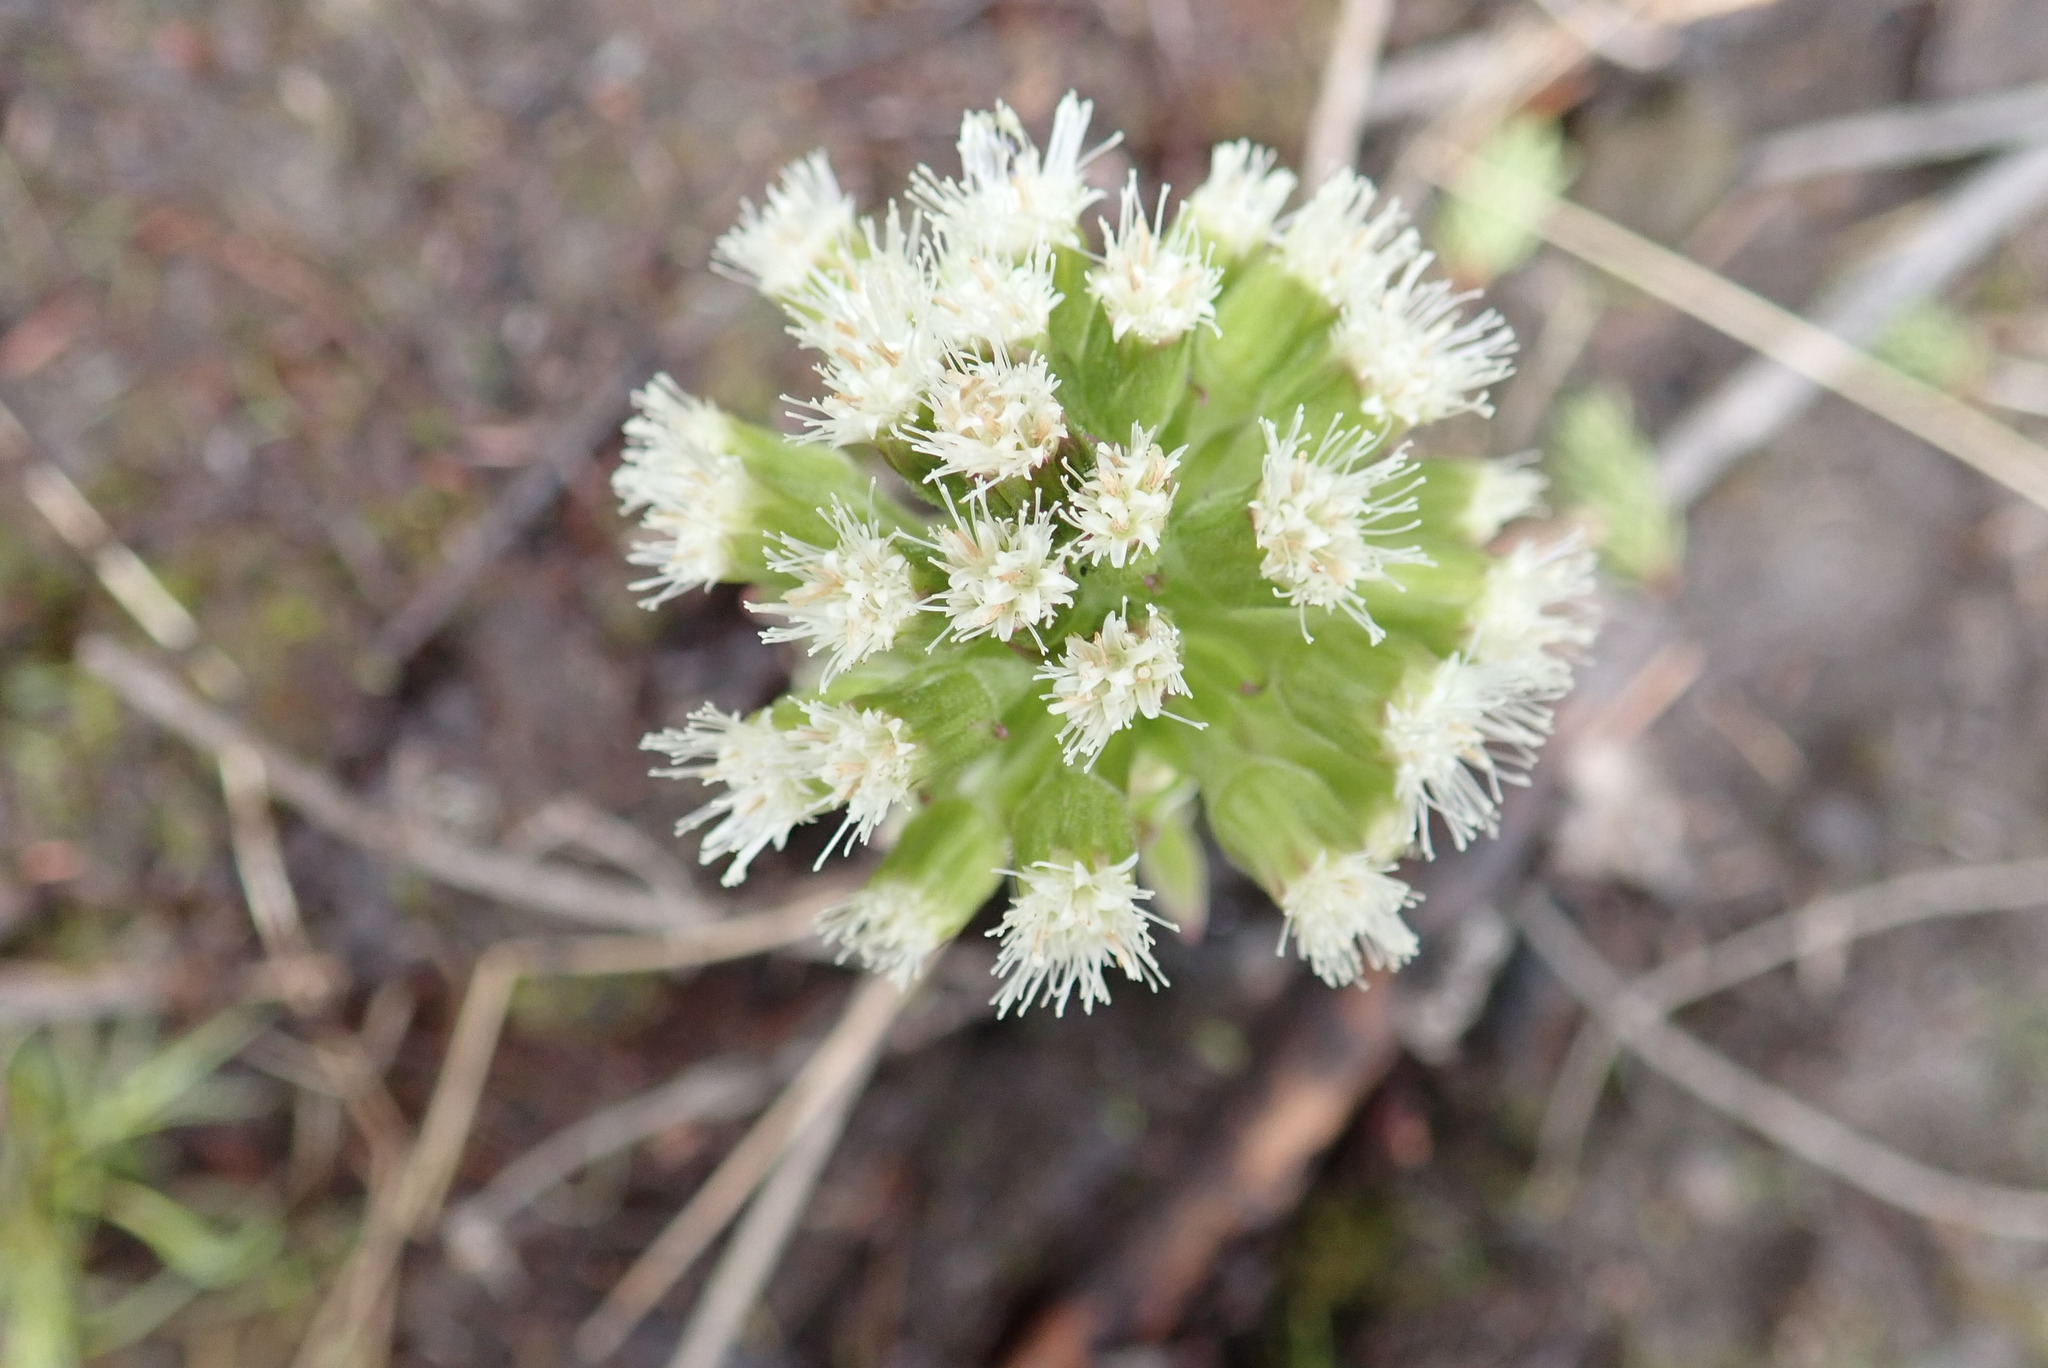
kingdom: Plantae
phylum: Tracheophyta
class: Magnoliopsida
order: Asterales
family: Asteraceae
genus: Petasites
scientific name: Petasites frigidus
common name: Arctic butterbur
